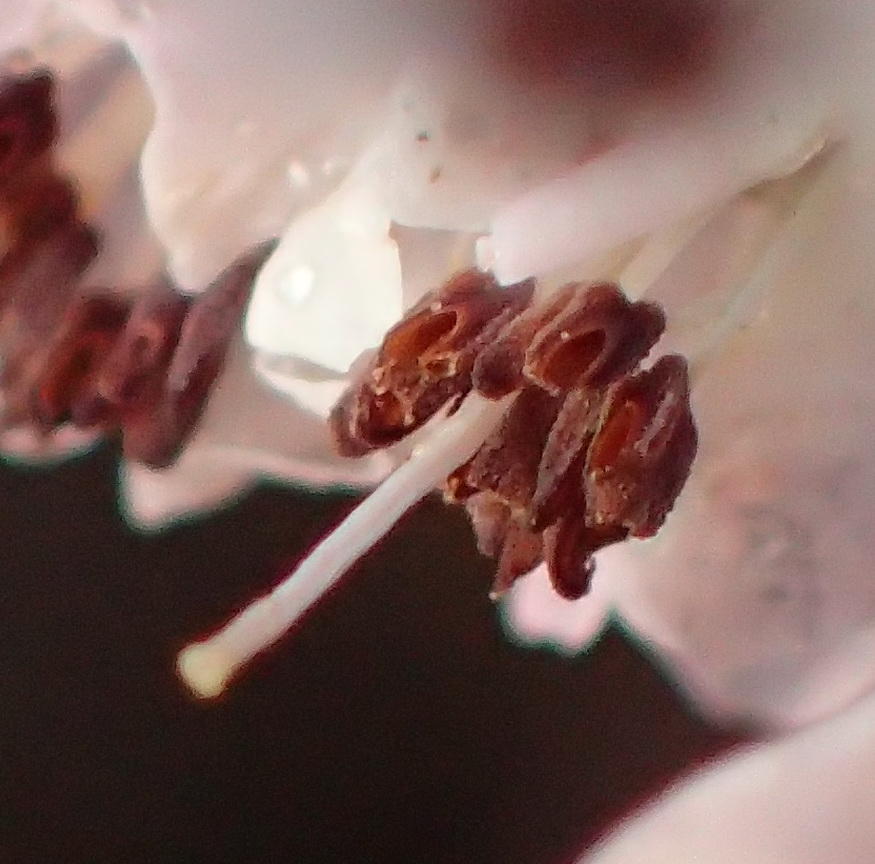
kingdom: Plantae
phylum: Tracheophyta
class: Magnoliopsida
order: Ericales
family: Ericaceae
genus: Erica
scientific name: Erica canaliculata
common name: Hairy grey heather
